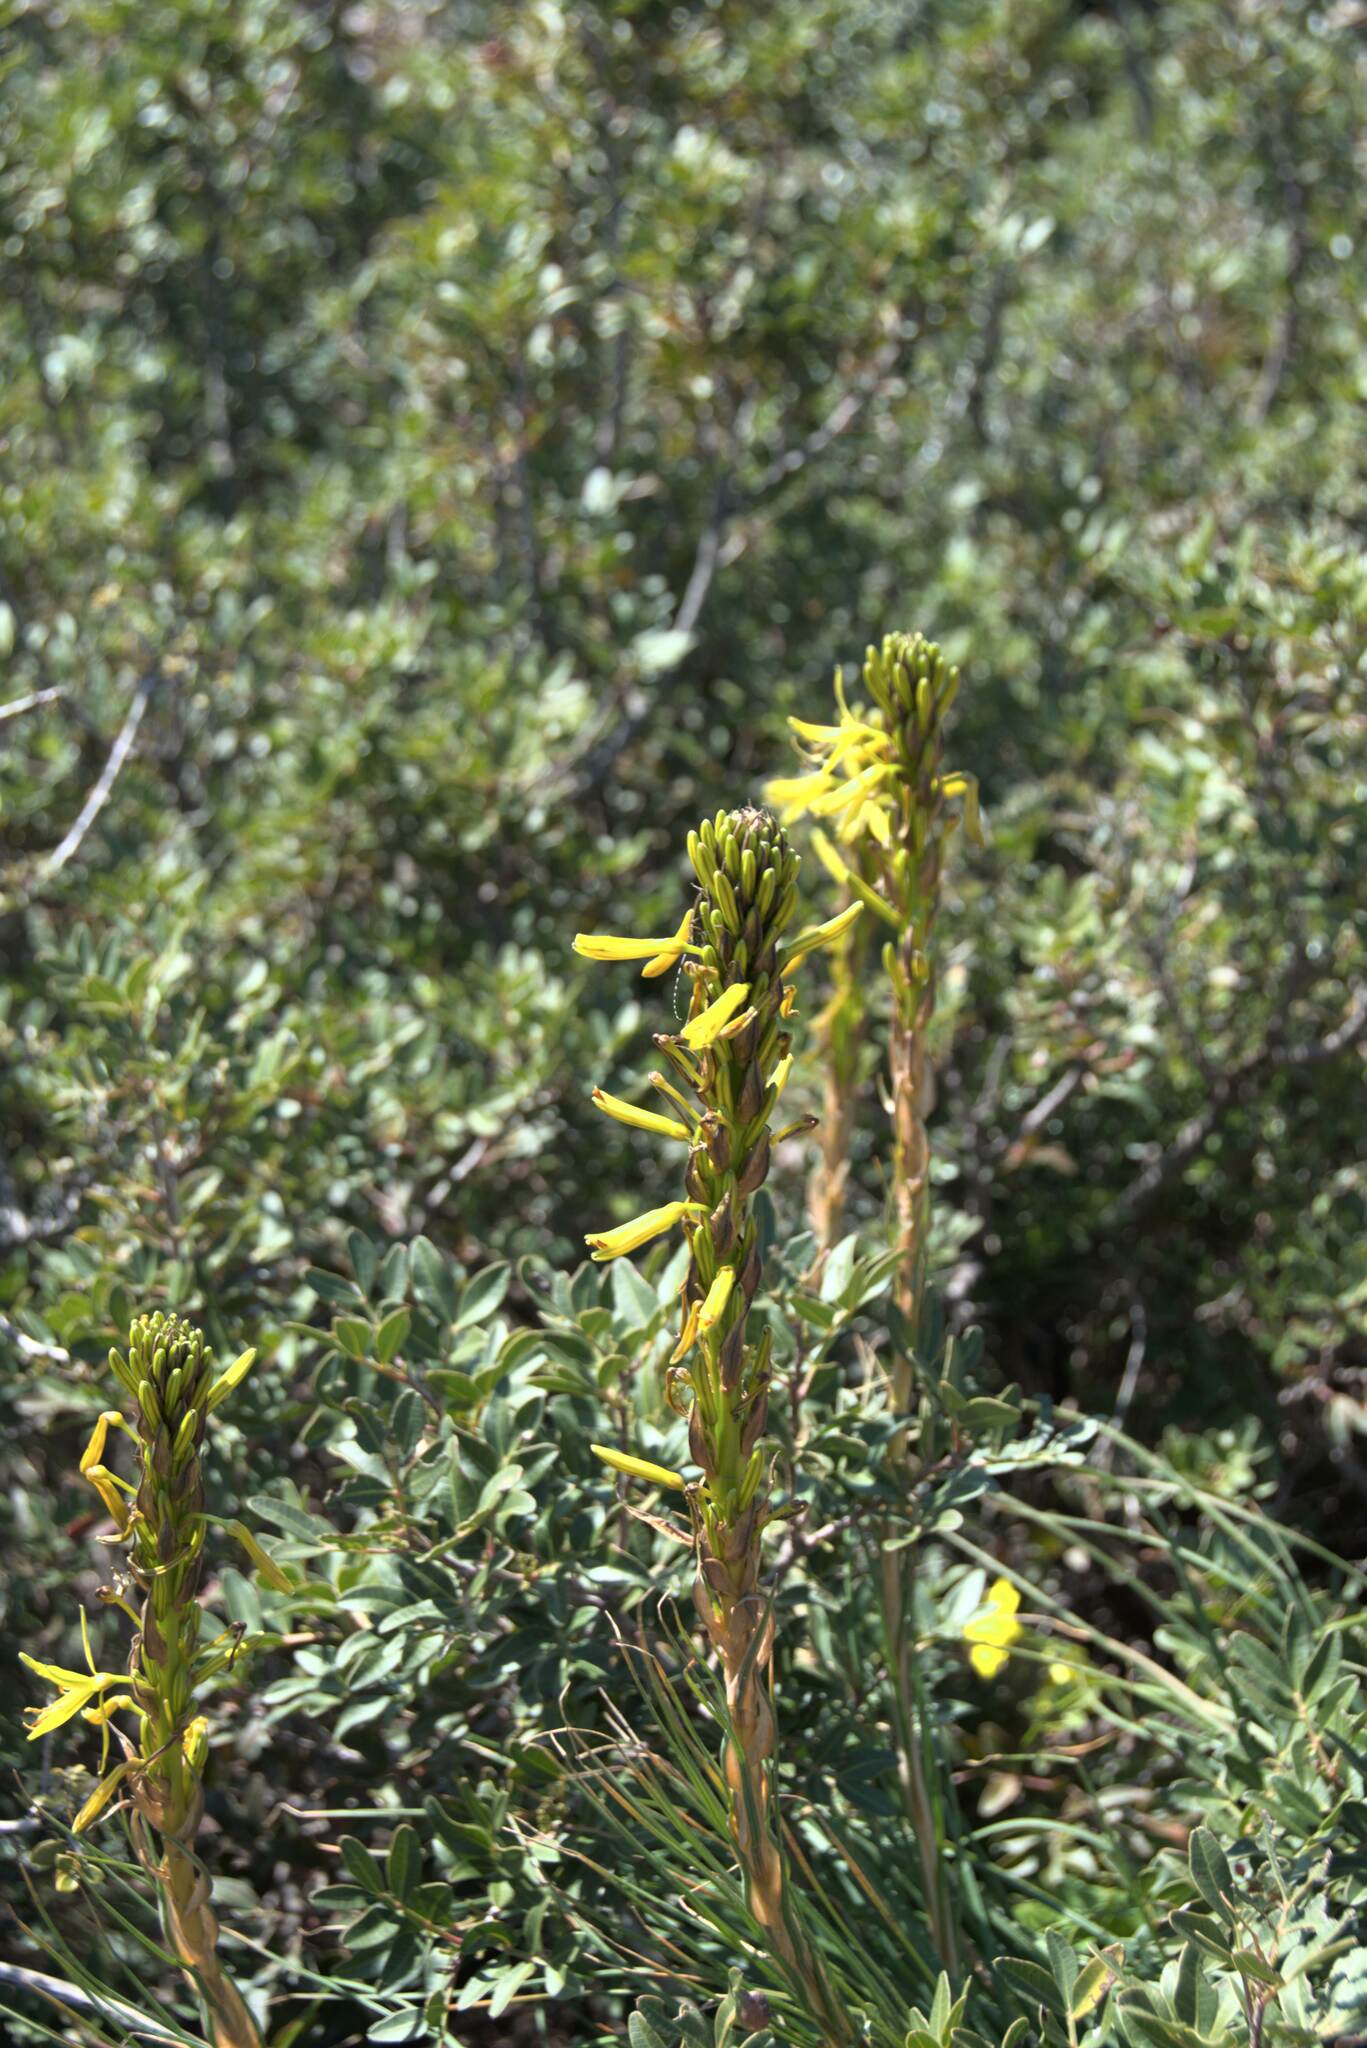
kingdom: Plantae
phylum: Tracheophyta
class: Liliopsida
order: Asparagales
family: Asphodelaceae
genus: Asphodeline
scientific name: Asphodeline lutea
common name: Yellow asphodel
